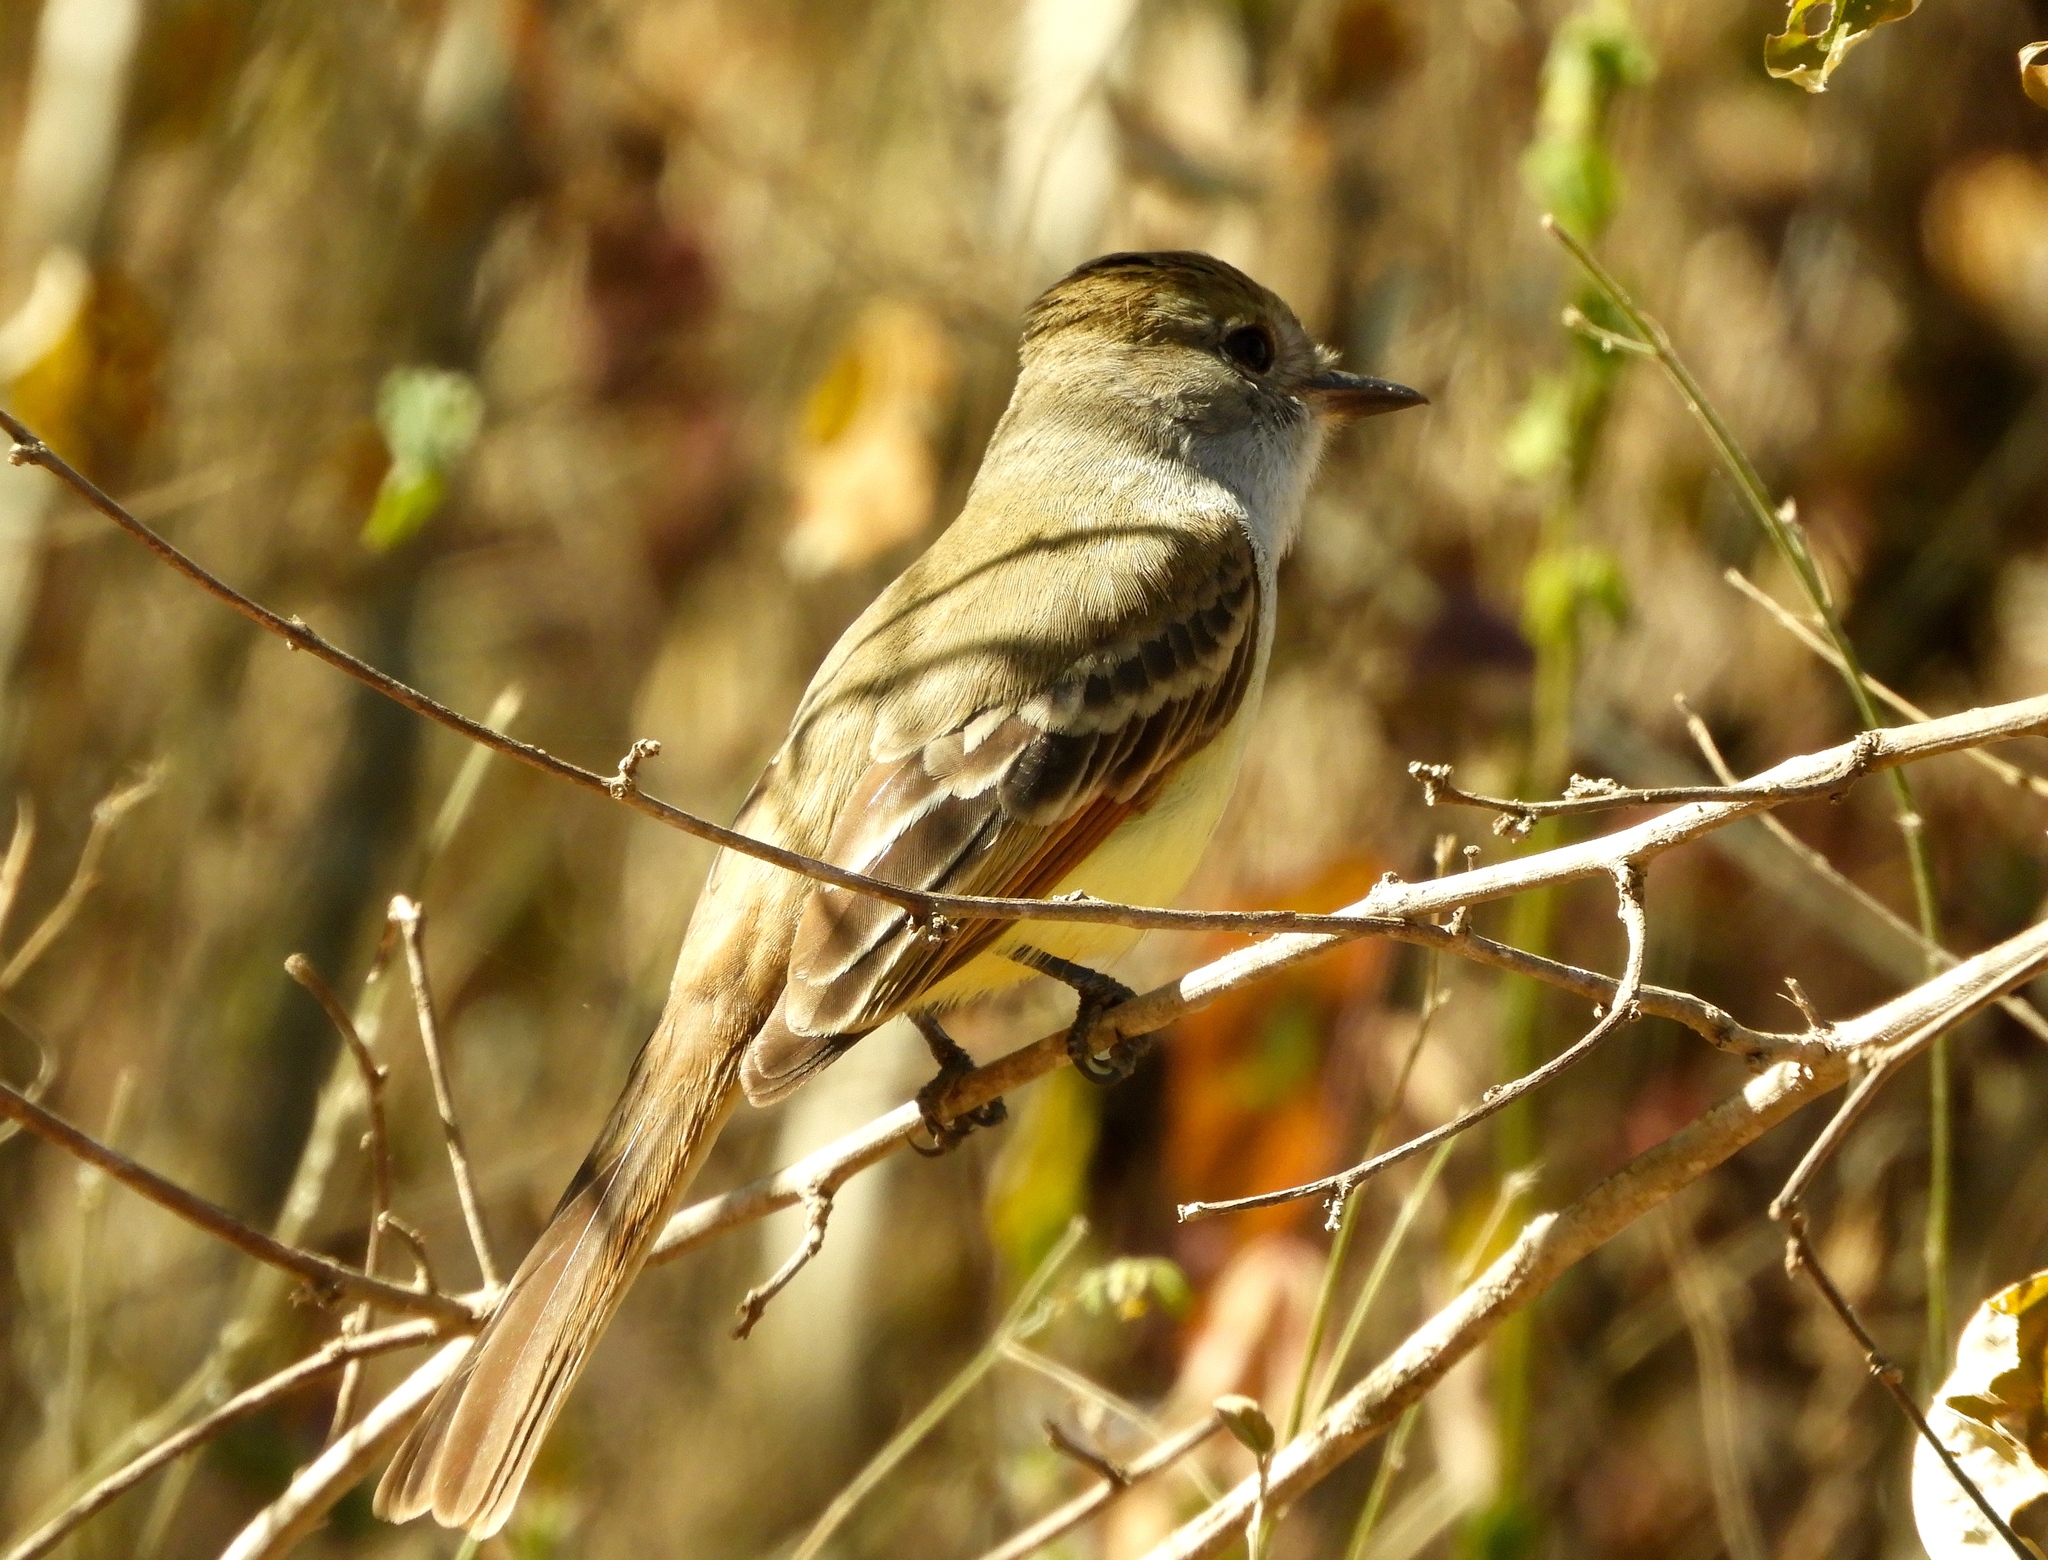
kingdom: Animalia
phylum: Chordata
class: Aves
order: Passeriformes
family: Tyrannidae
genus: Myiarchus
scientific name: Myiarchus
